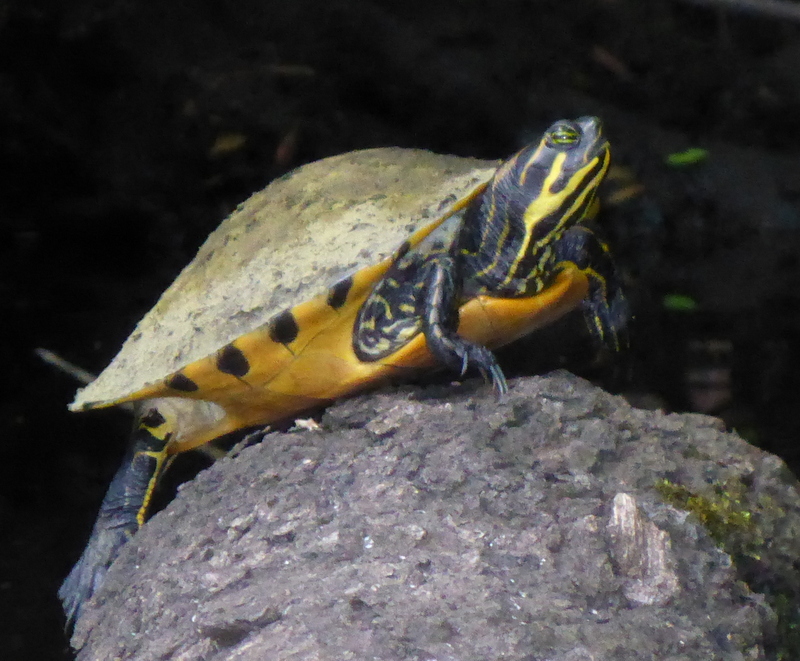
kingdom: Animalia
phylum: Chordata
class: Testudines
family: Emydidae
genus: Pseudemys
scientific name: Pseudemys concinna
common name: Eastern river cooter
